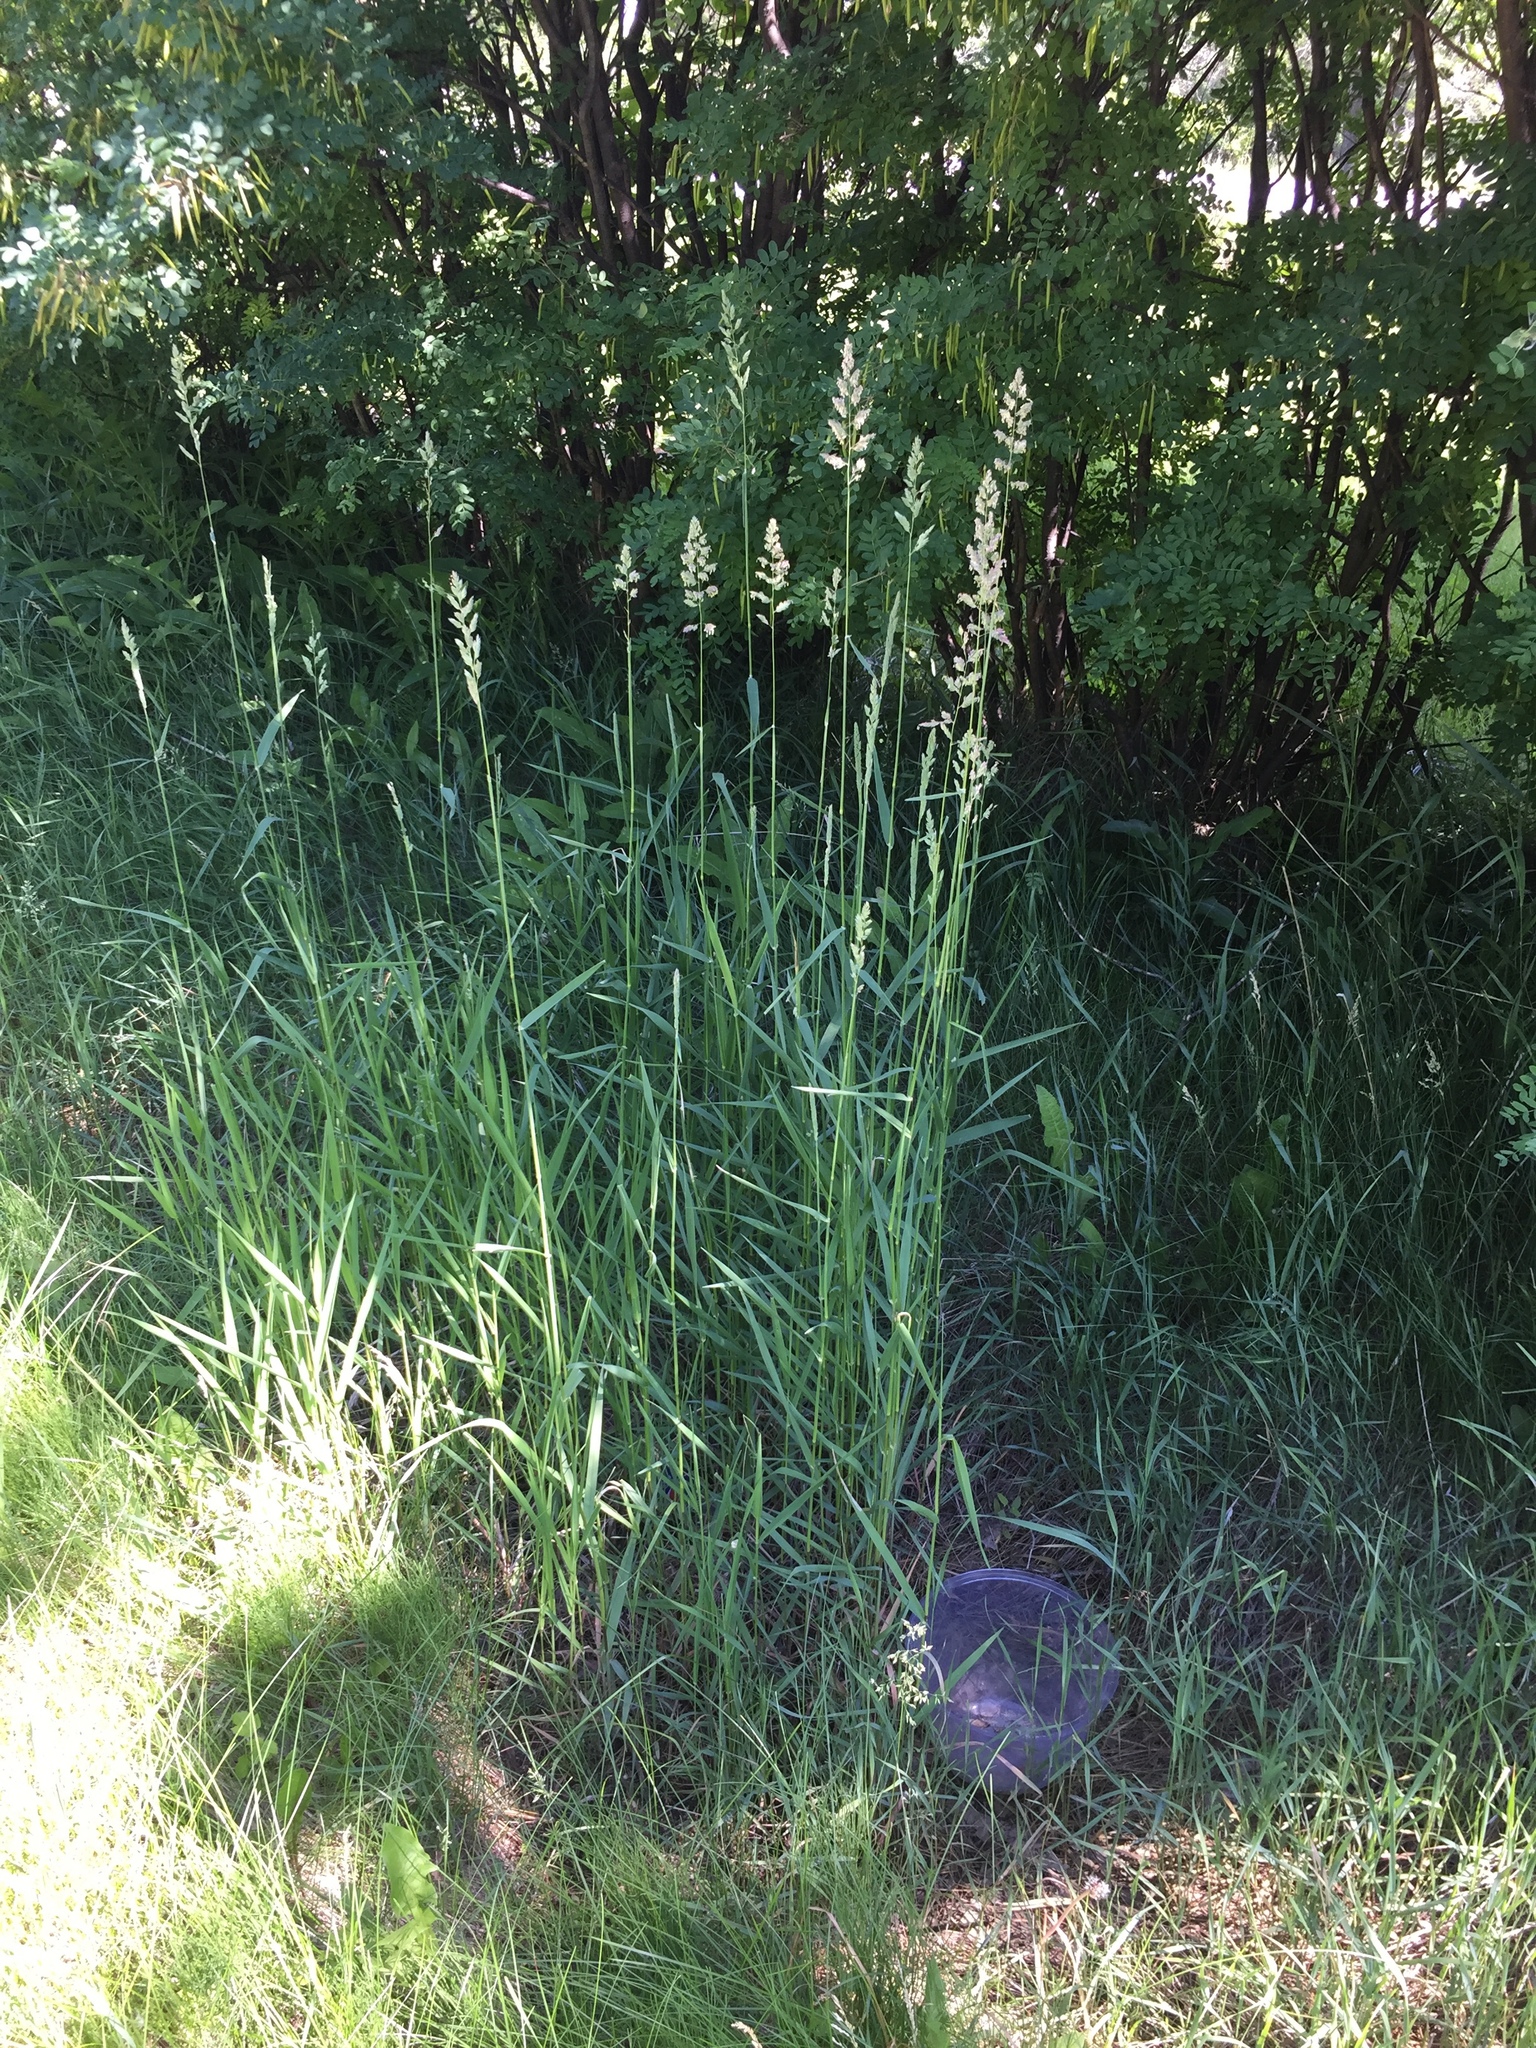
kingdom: Plantae
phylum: Tracheophyta
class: Liliopsida
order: Poales
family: Poaceae
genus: Phalaris
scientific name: Phalaris arundinacea
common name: Reed canary-grass
